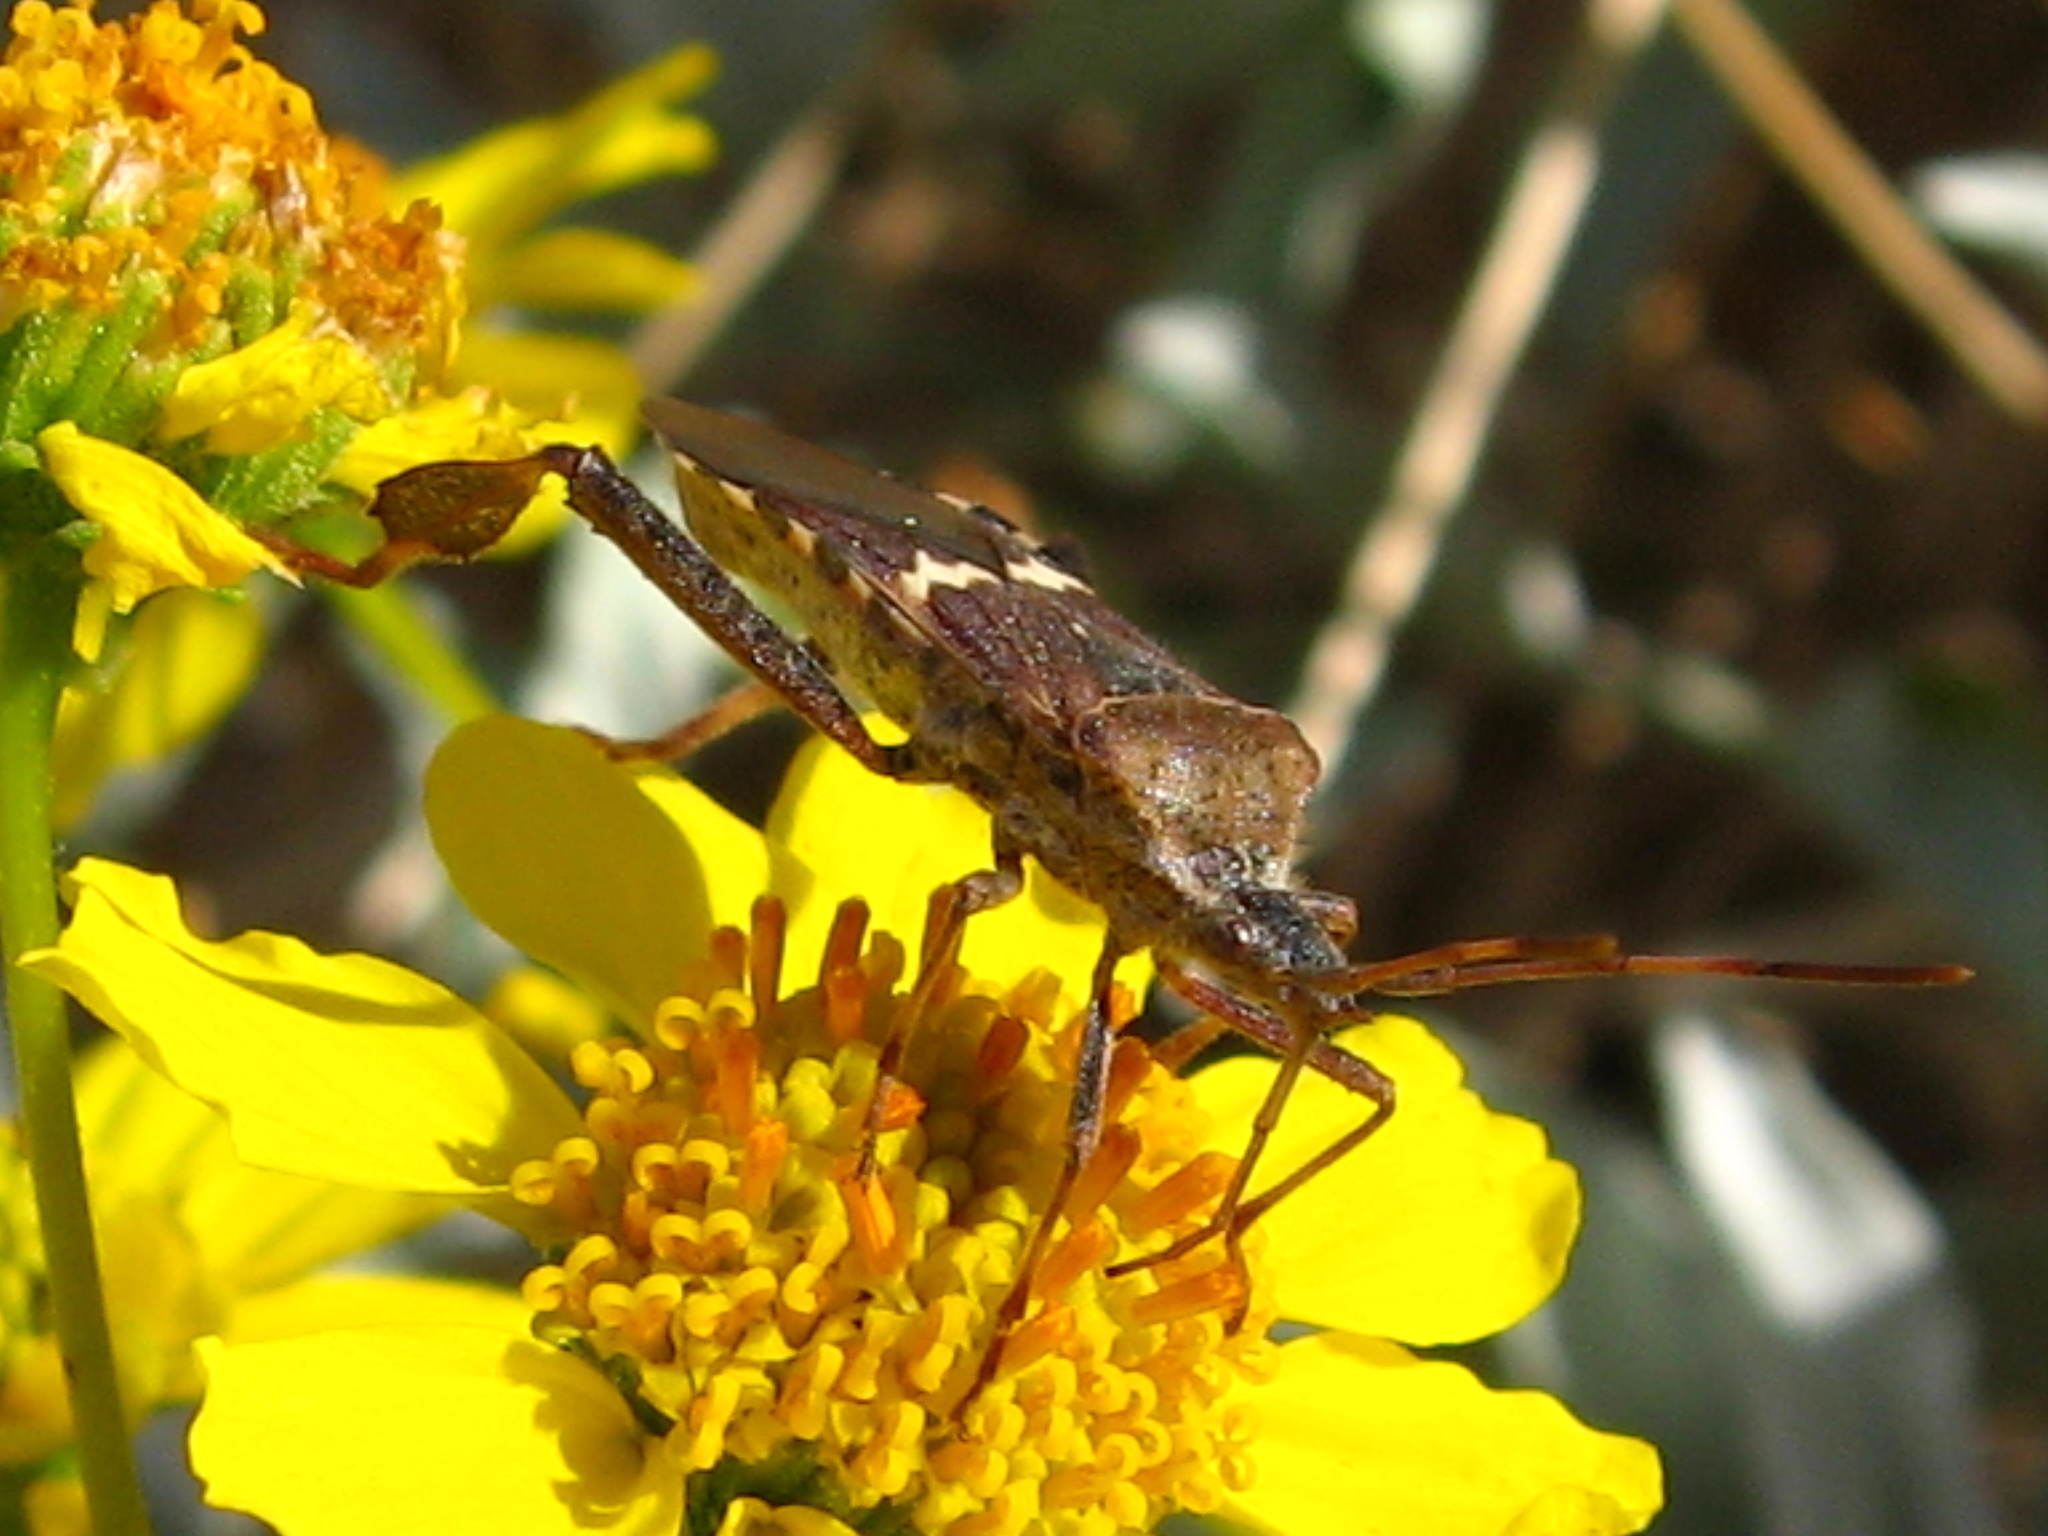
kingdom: Animalia
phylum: Arthropoda
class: Insecta
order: Hemiptera
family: Coreidae
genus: Leptoglossus
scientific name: Leptoglossus clypealis
